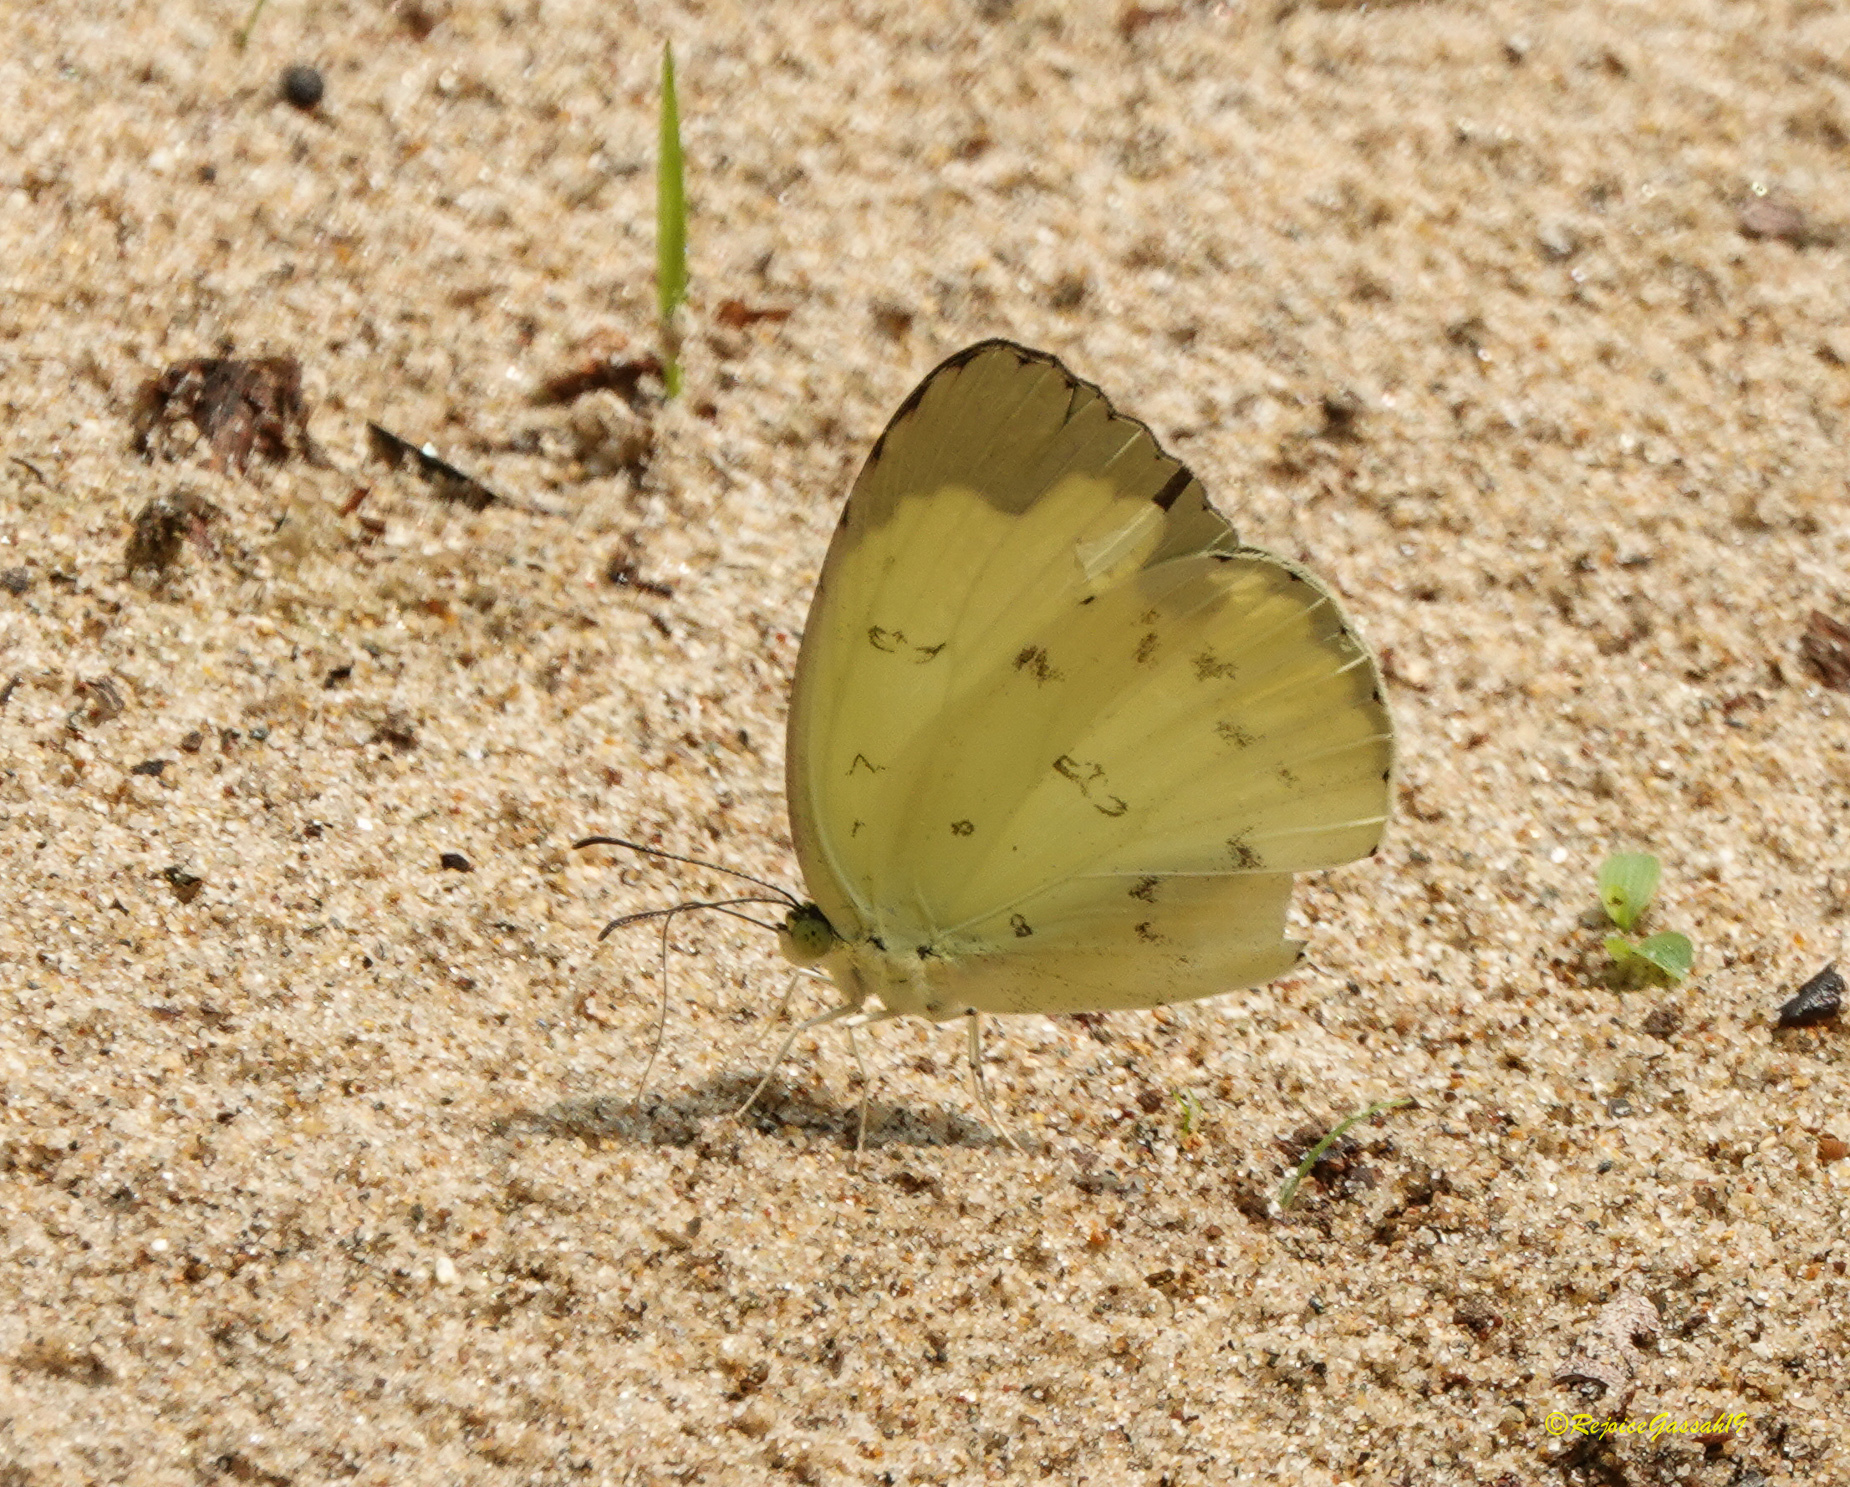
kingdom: Animalia
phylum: Arthropoda
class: Insecta
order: Lepidoptera
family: Pieridae
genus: Eurema
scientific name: Eurema hecabe
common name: Pale grass yellow
